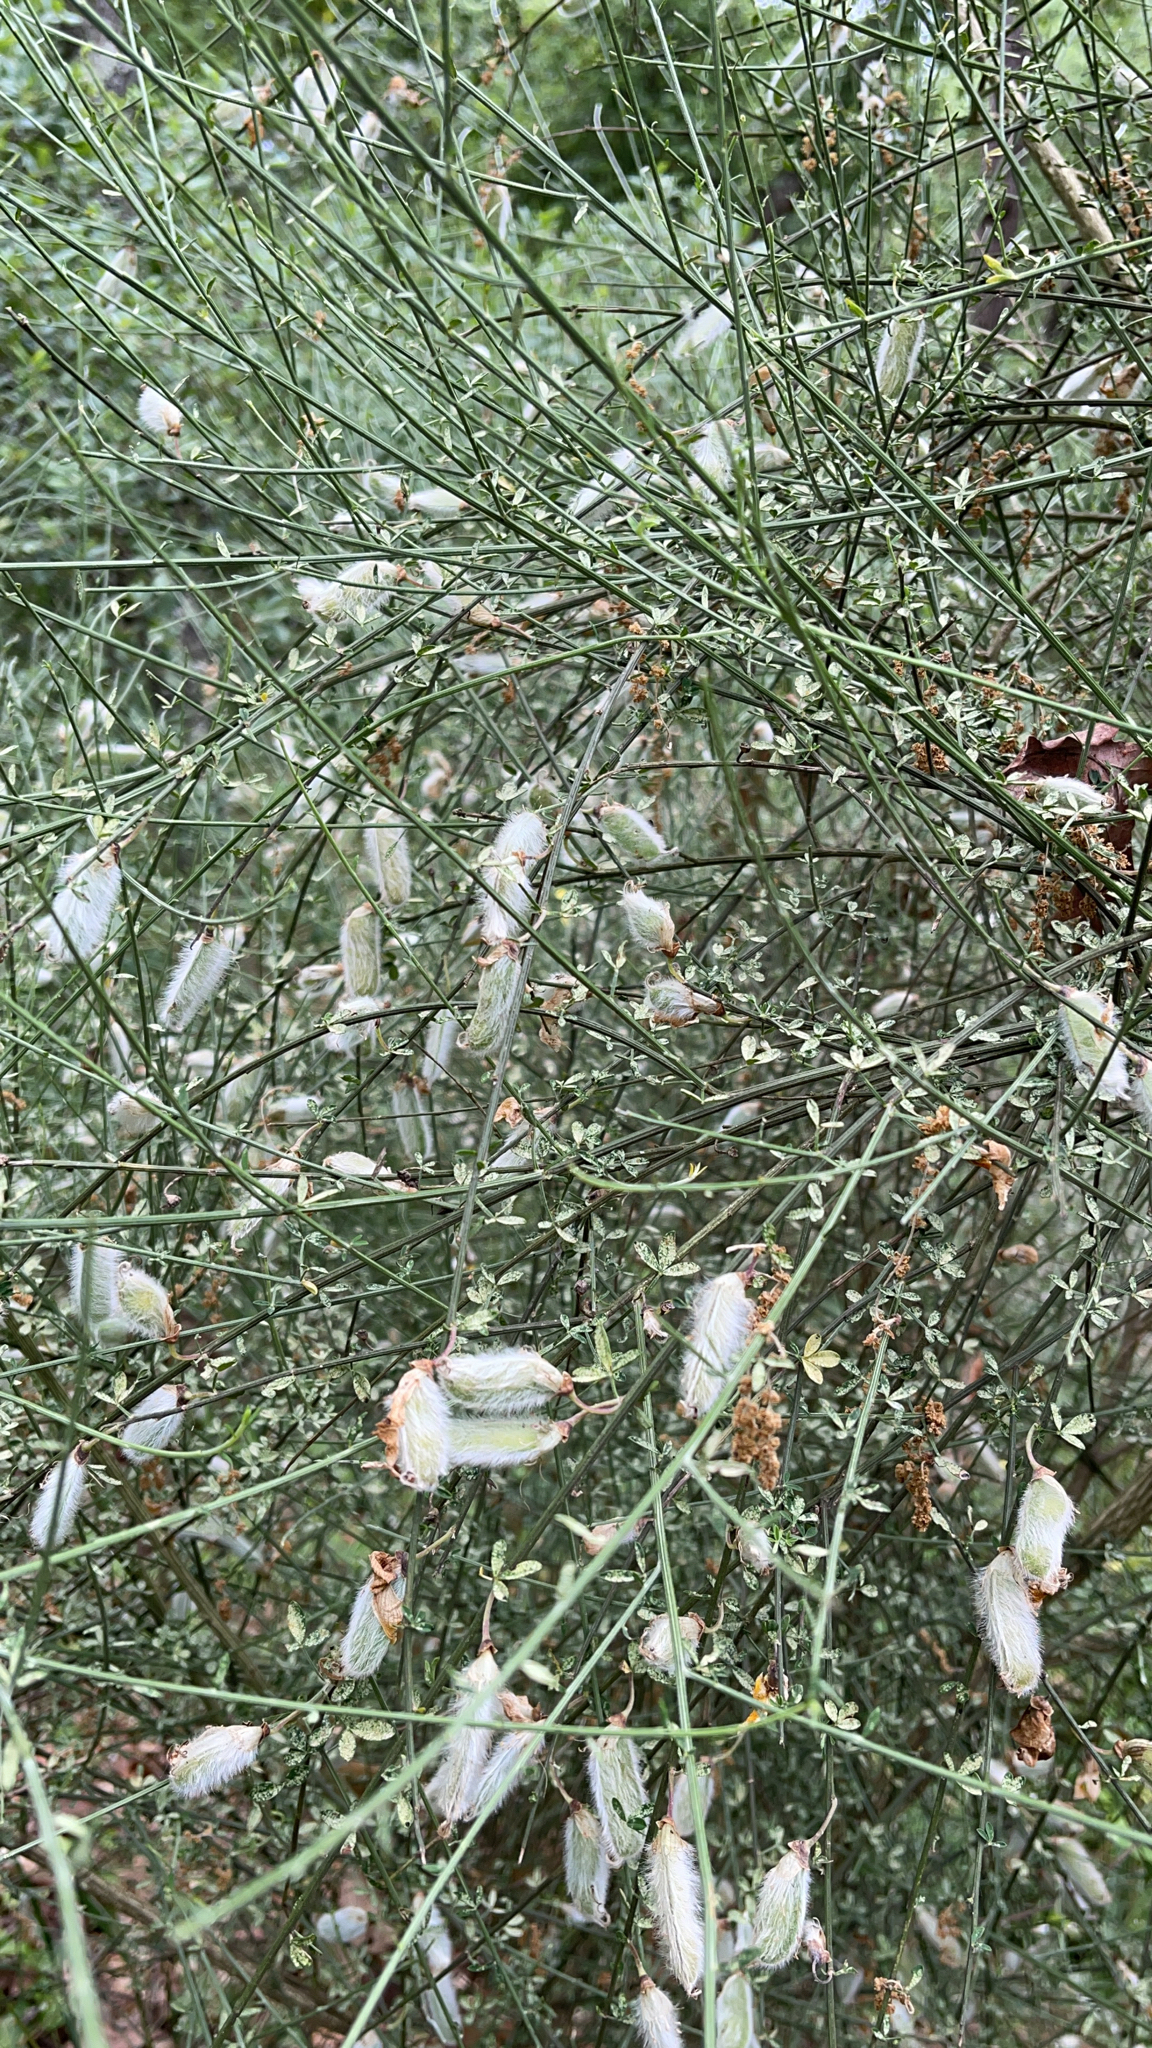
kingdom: Plantae
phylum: Tracheophyta
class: Magnoliopsida
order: Fabales
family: Fabaceae
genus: Cytisus
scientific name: Cytisus striatus
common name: Hairy-fruited broom
